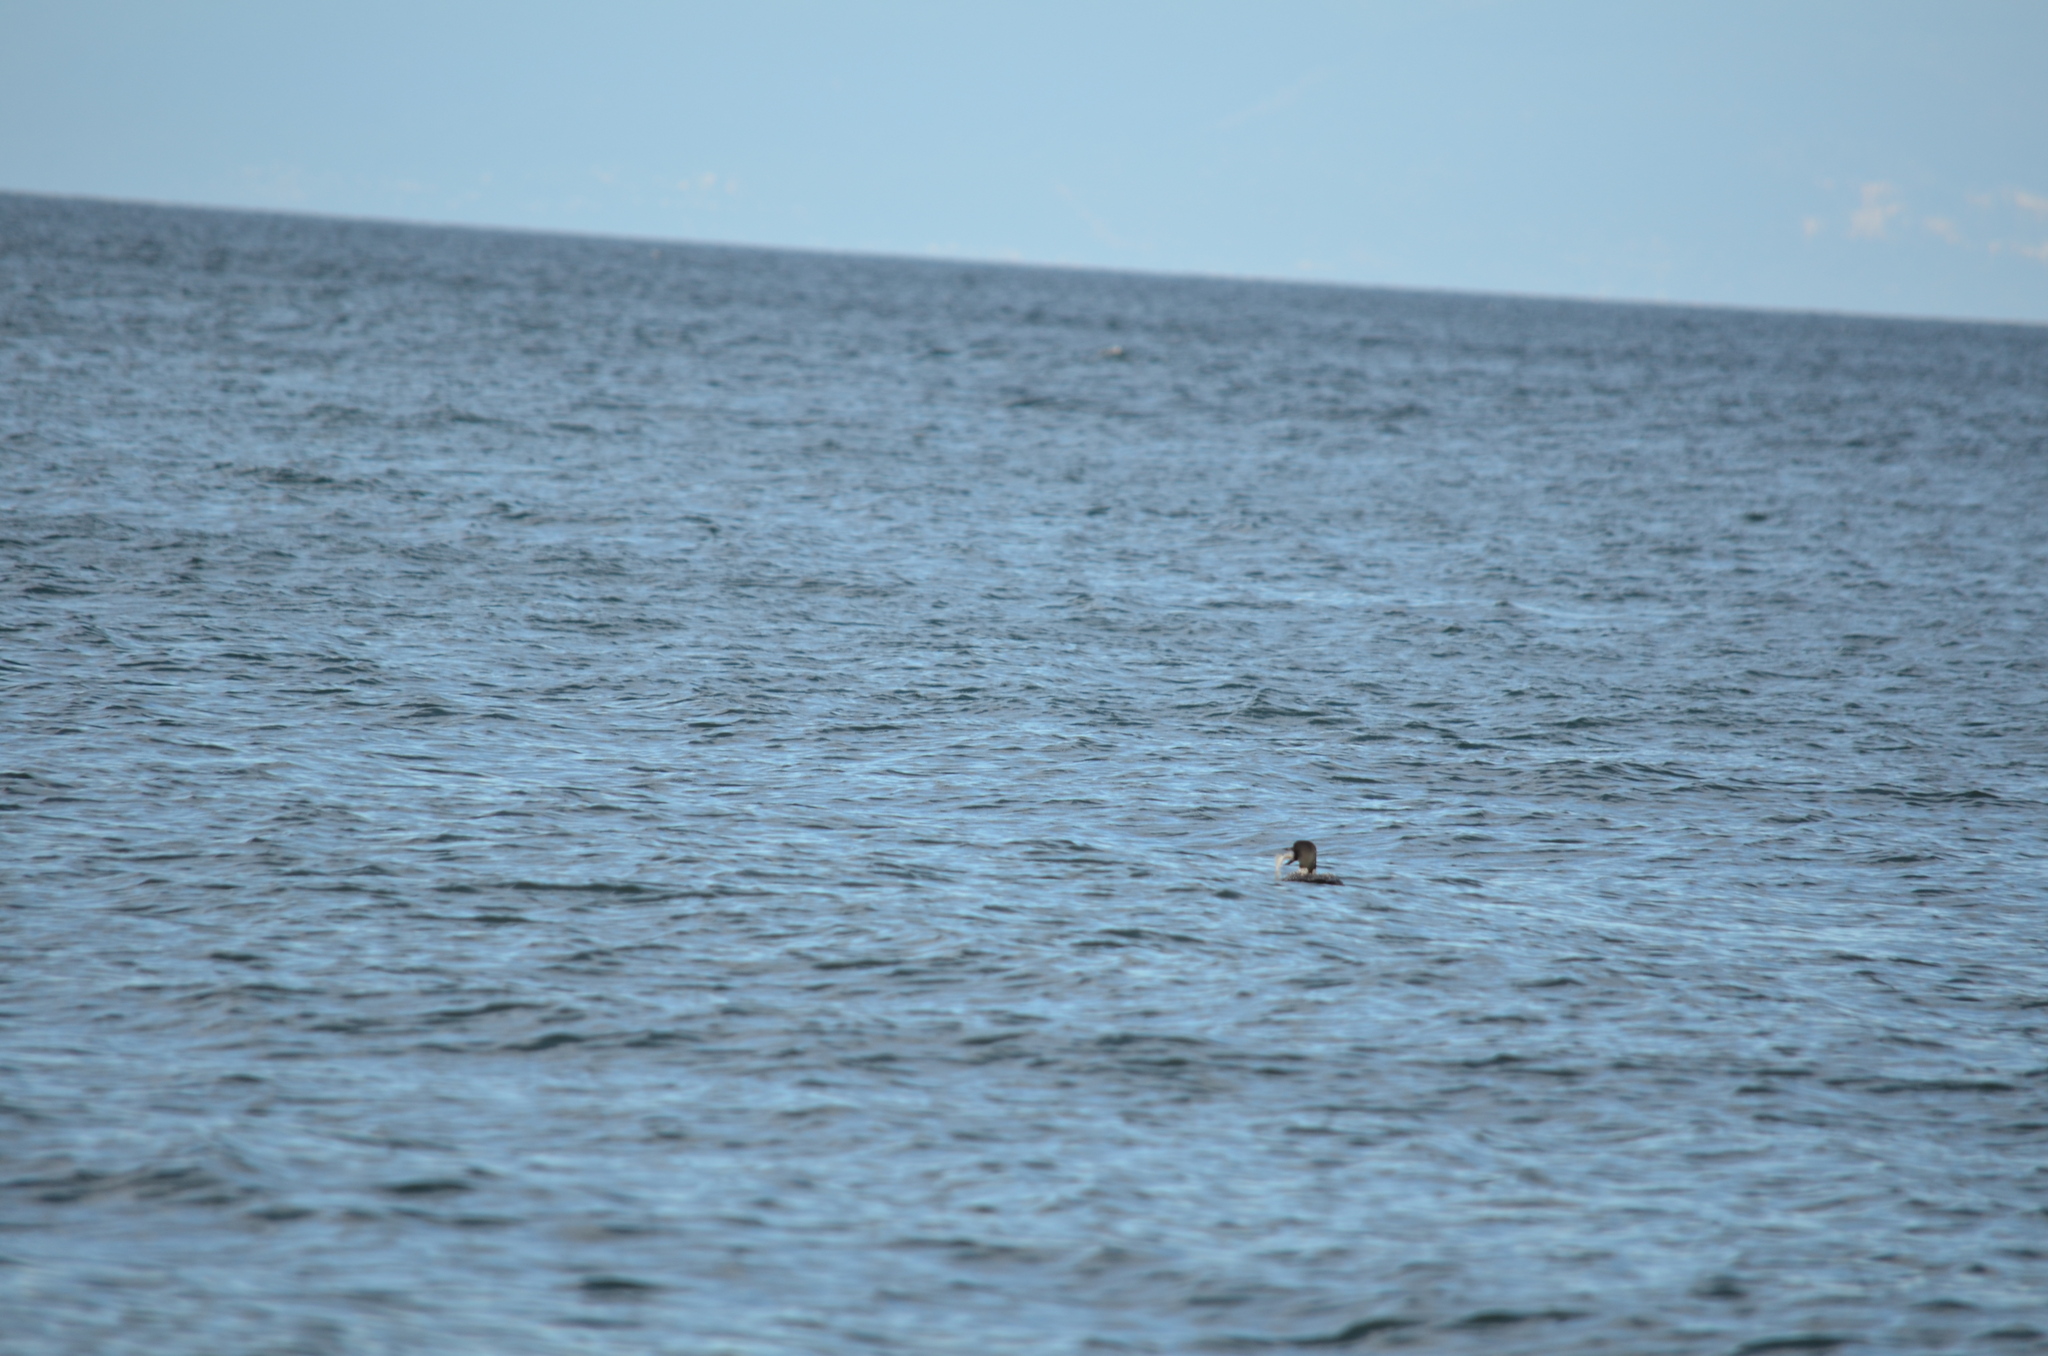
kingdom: Animalia
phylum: Chordata
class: Aves
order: Gaviiformes
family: Gaviidae
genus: Gavia
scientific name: Gavia immer
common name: Common loon
